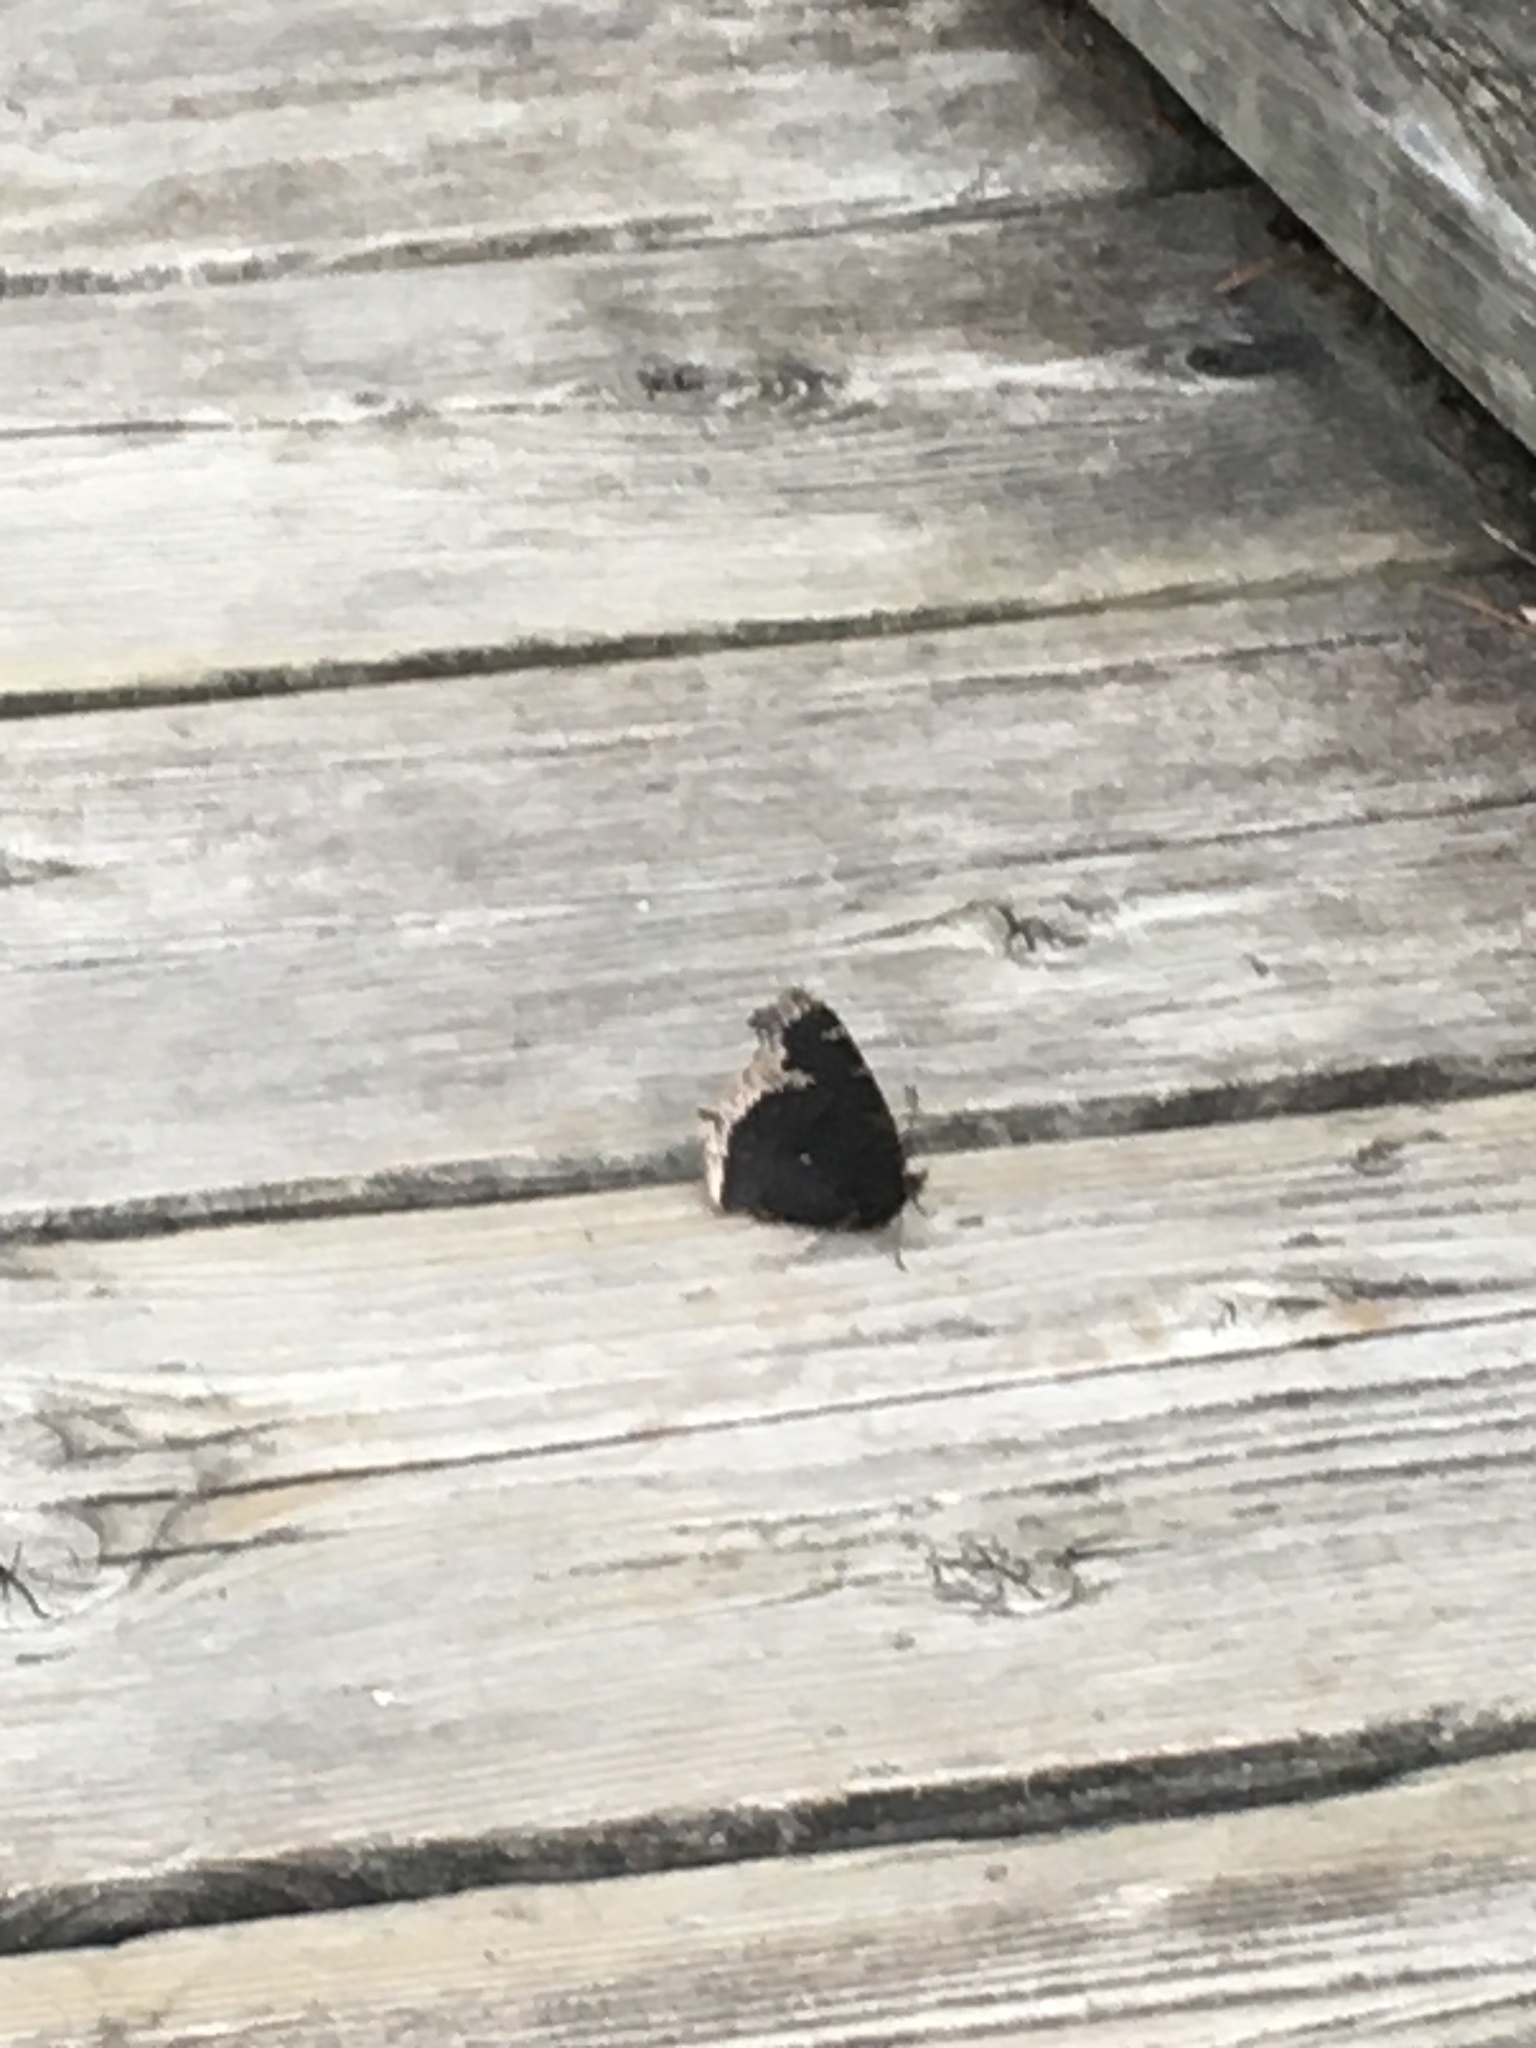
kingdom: Animalia
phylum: Arthropoda
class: Insecta
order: Lepidoptera
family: Nymphalidae
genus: Nymphalis
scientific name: Nymphalis antiopa
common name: Camberwell beauty
